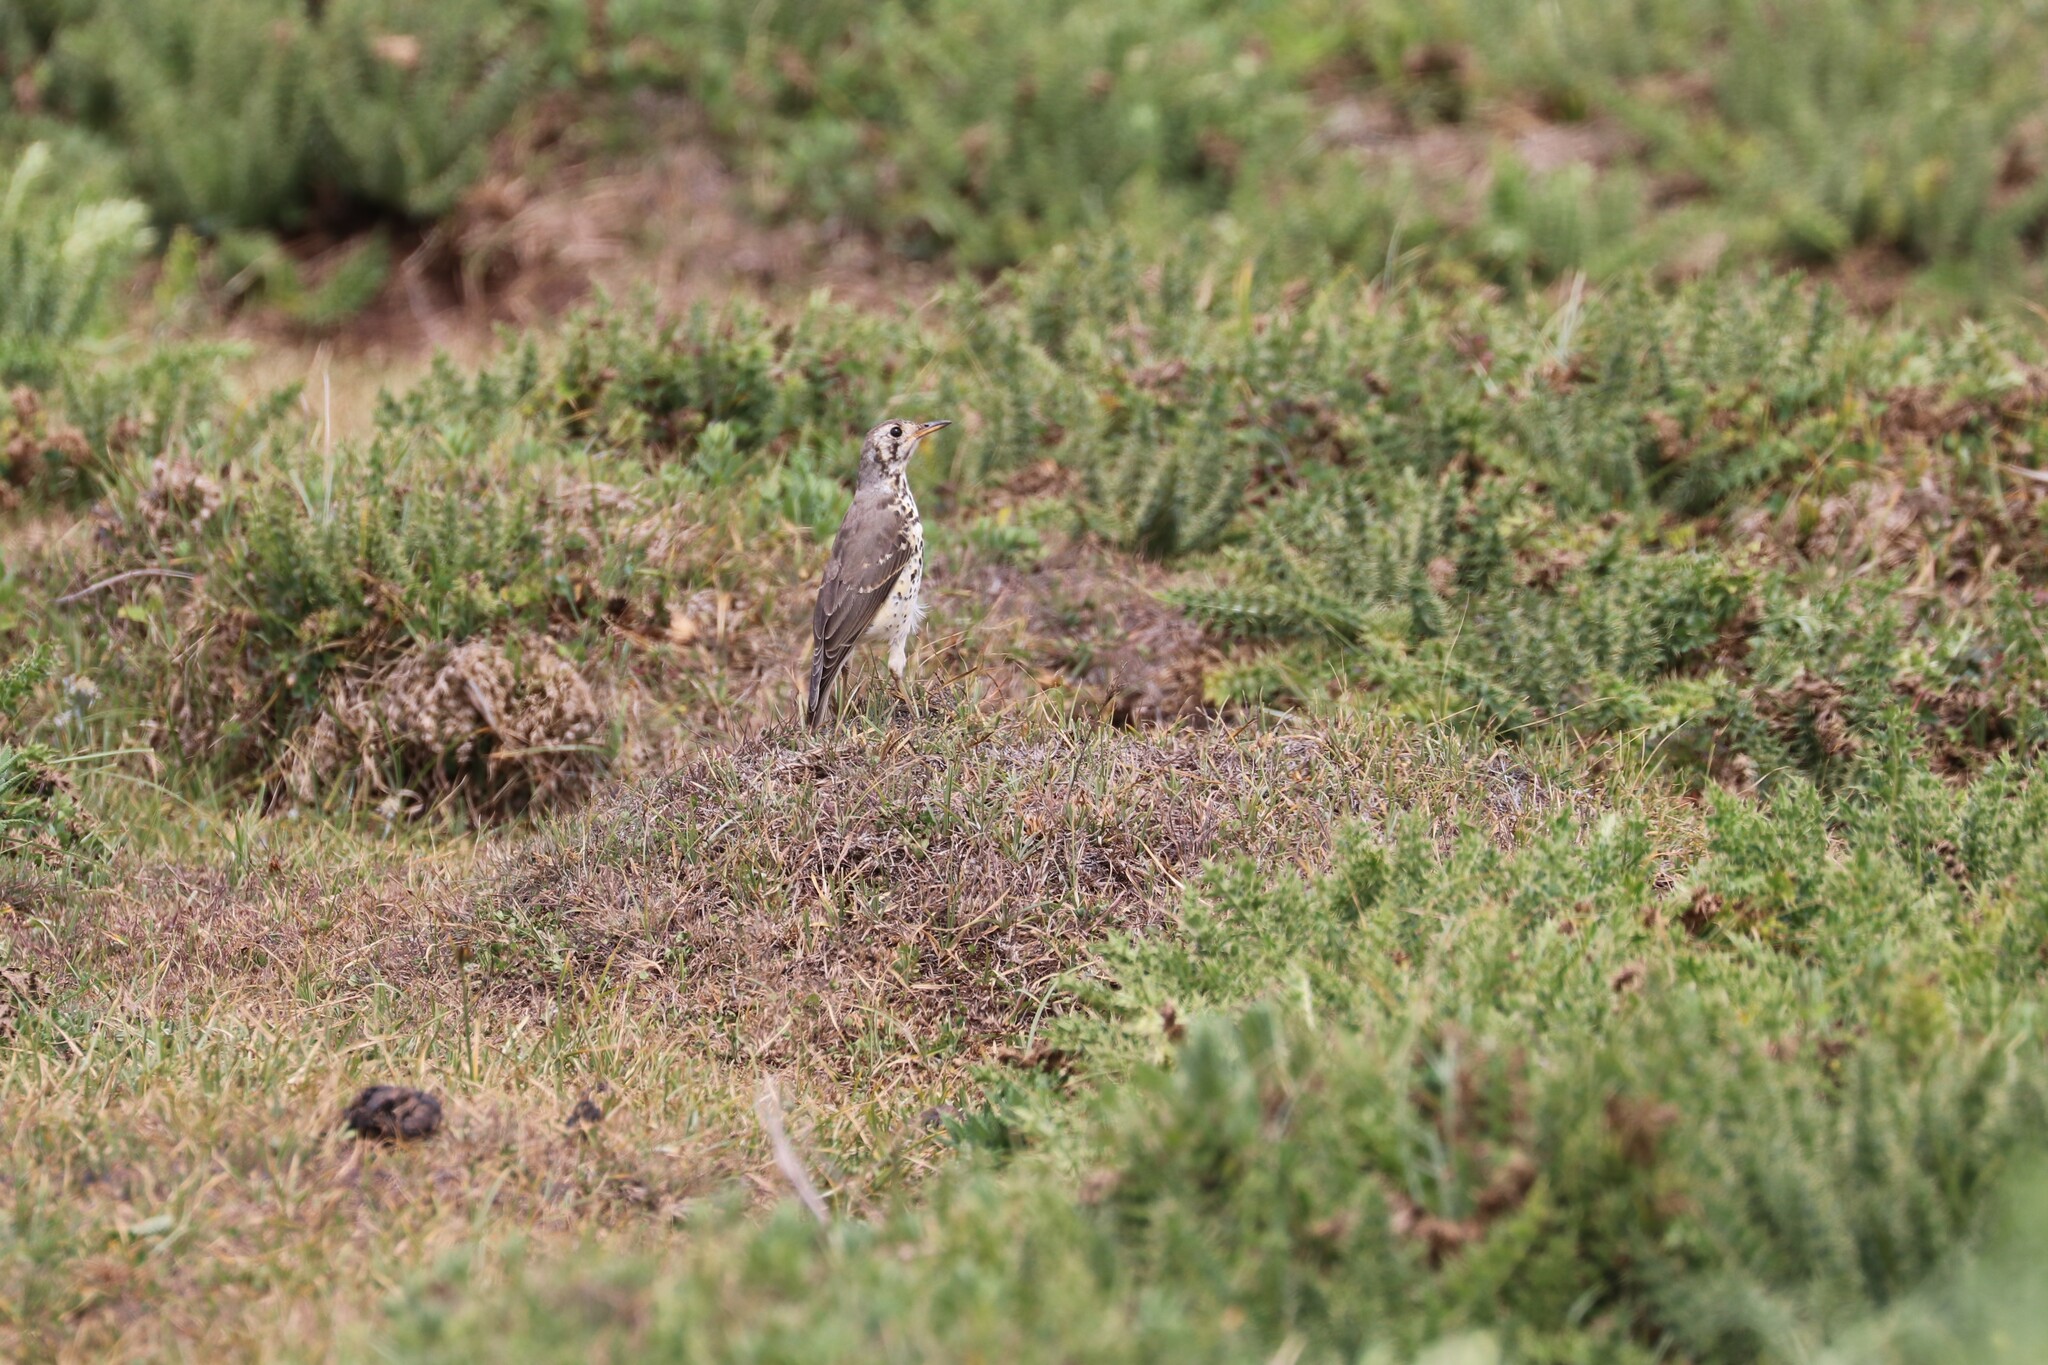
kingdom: Animalia
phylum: Chordata
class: Aves
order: Passeriformes
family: Turdidae
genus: Psophocichla
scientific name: Psophocichla litsitsirupa
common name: Groundscraper thrush
